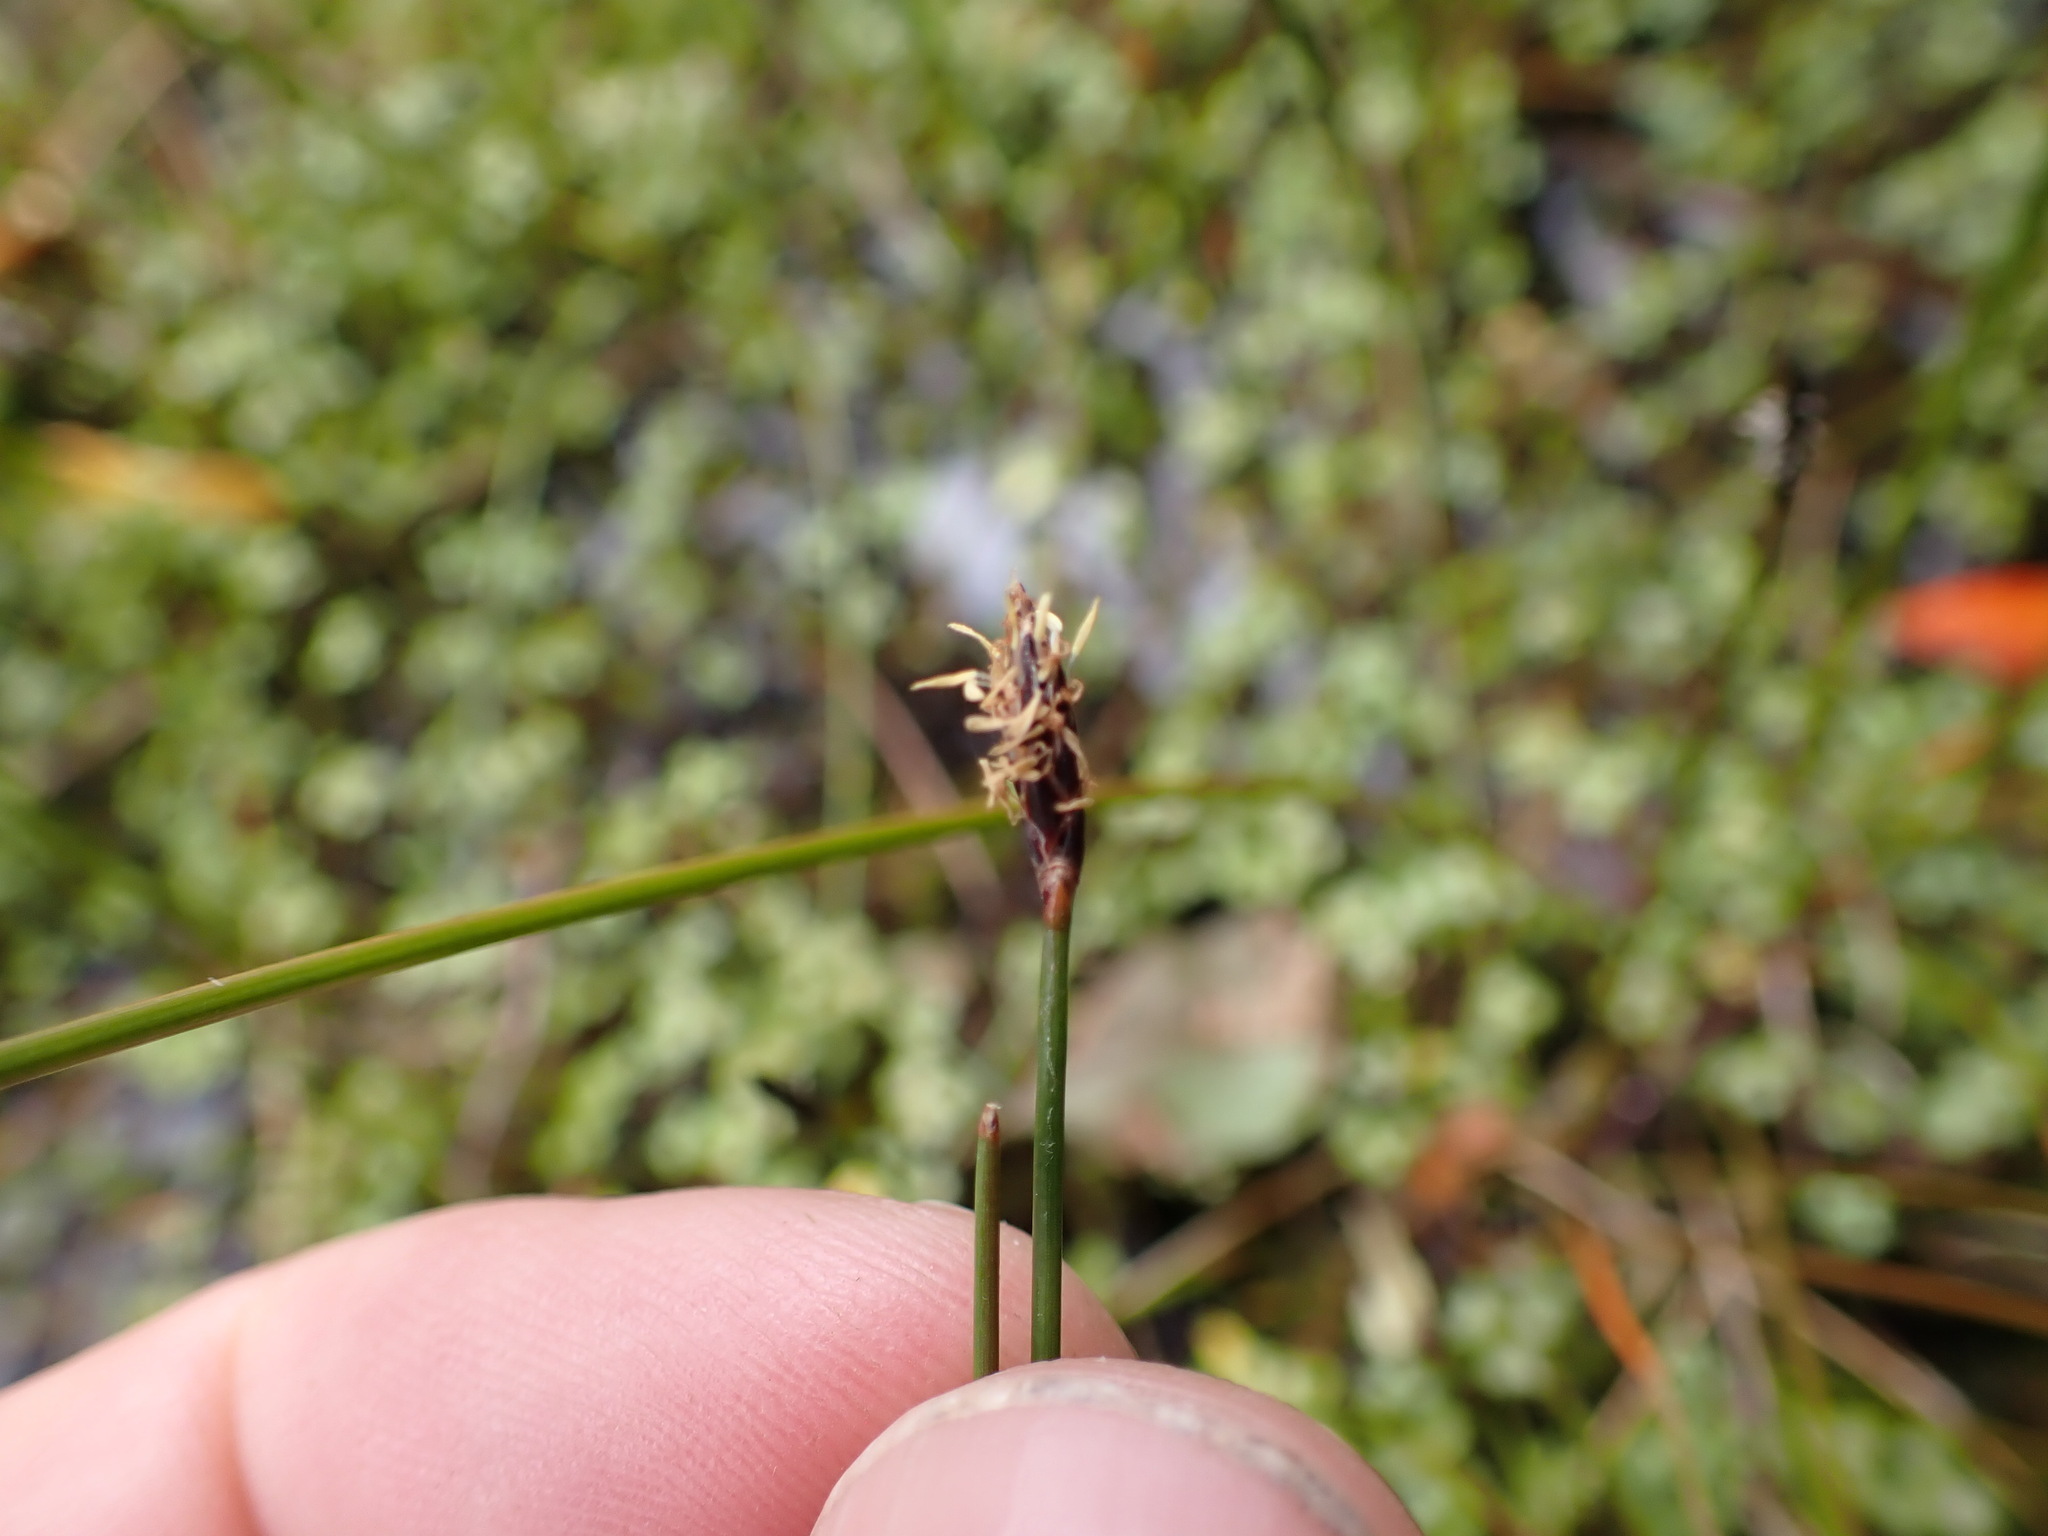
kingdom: Plantae
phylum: Tracheophyta
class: Liliopsida
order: Poales
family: Cyperaceae
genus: Eleocharis
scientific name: Eleocharis acuta
